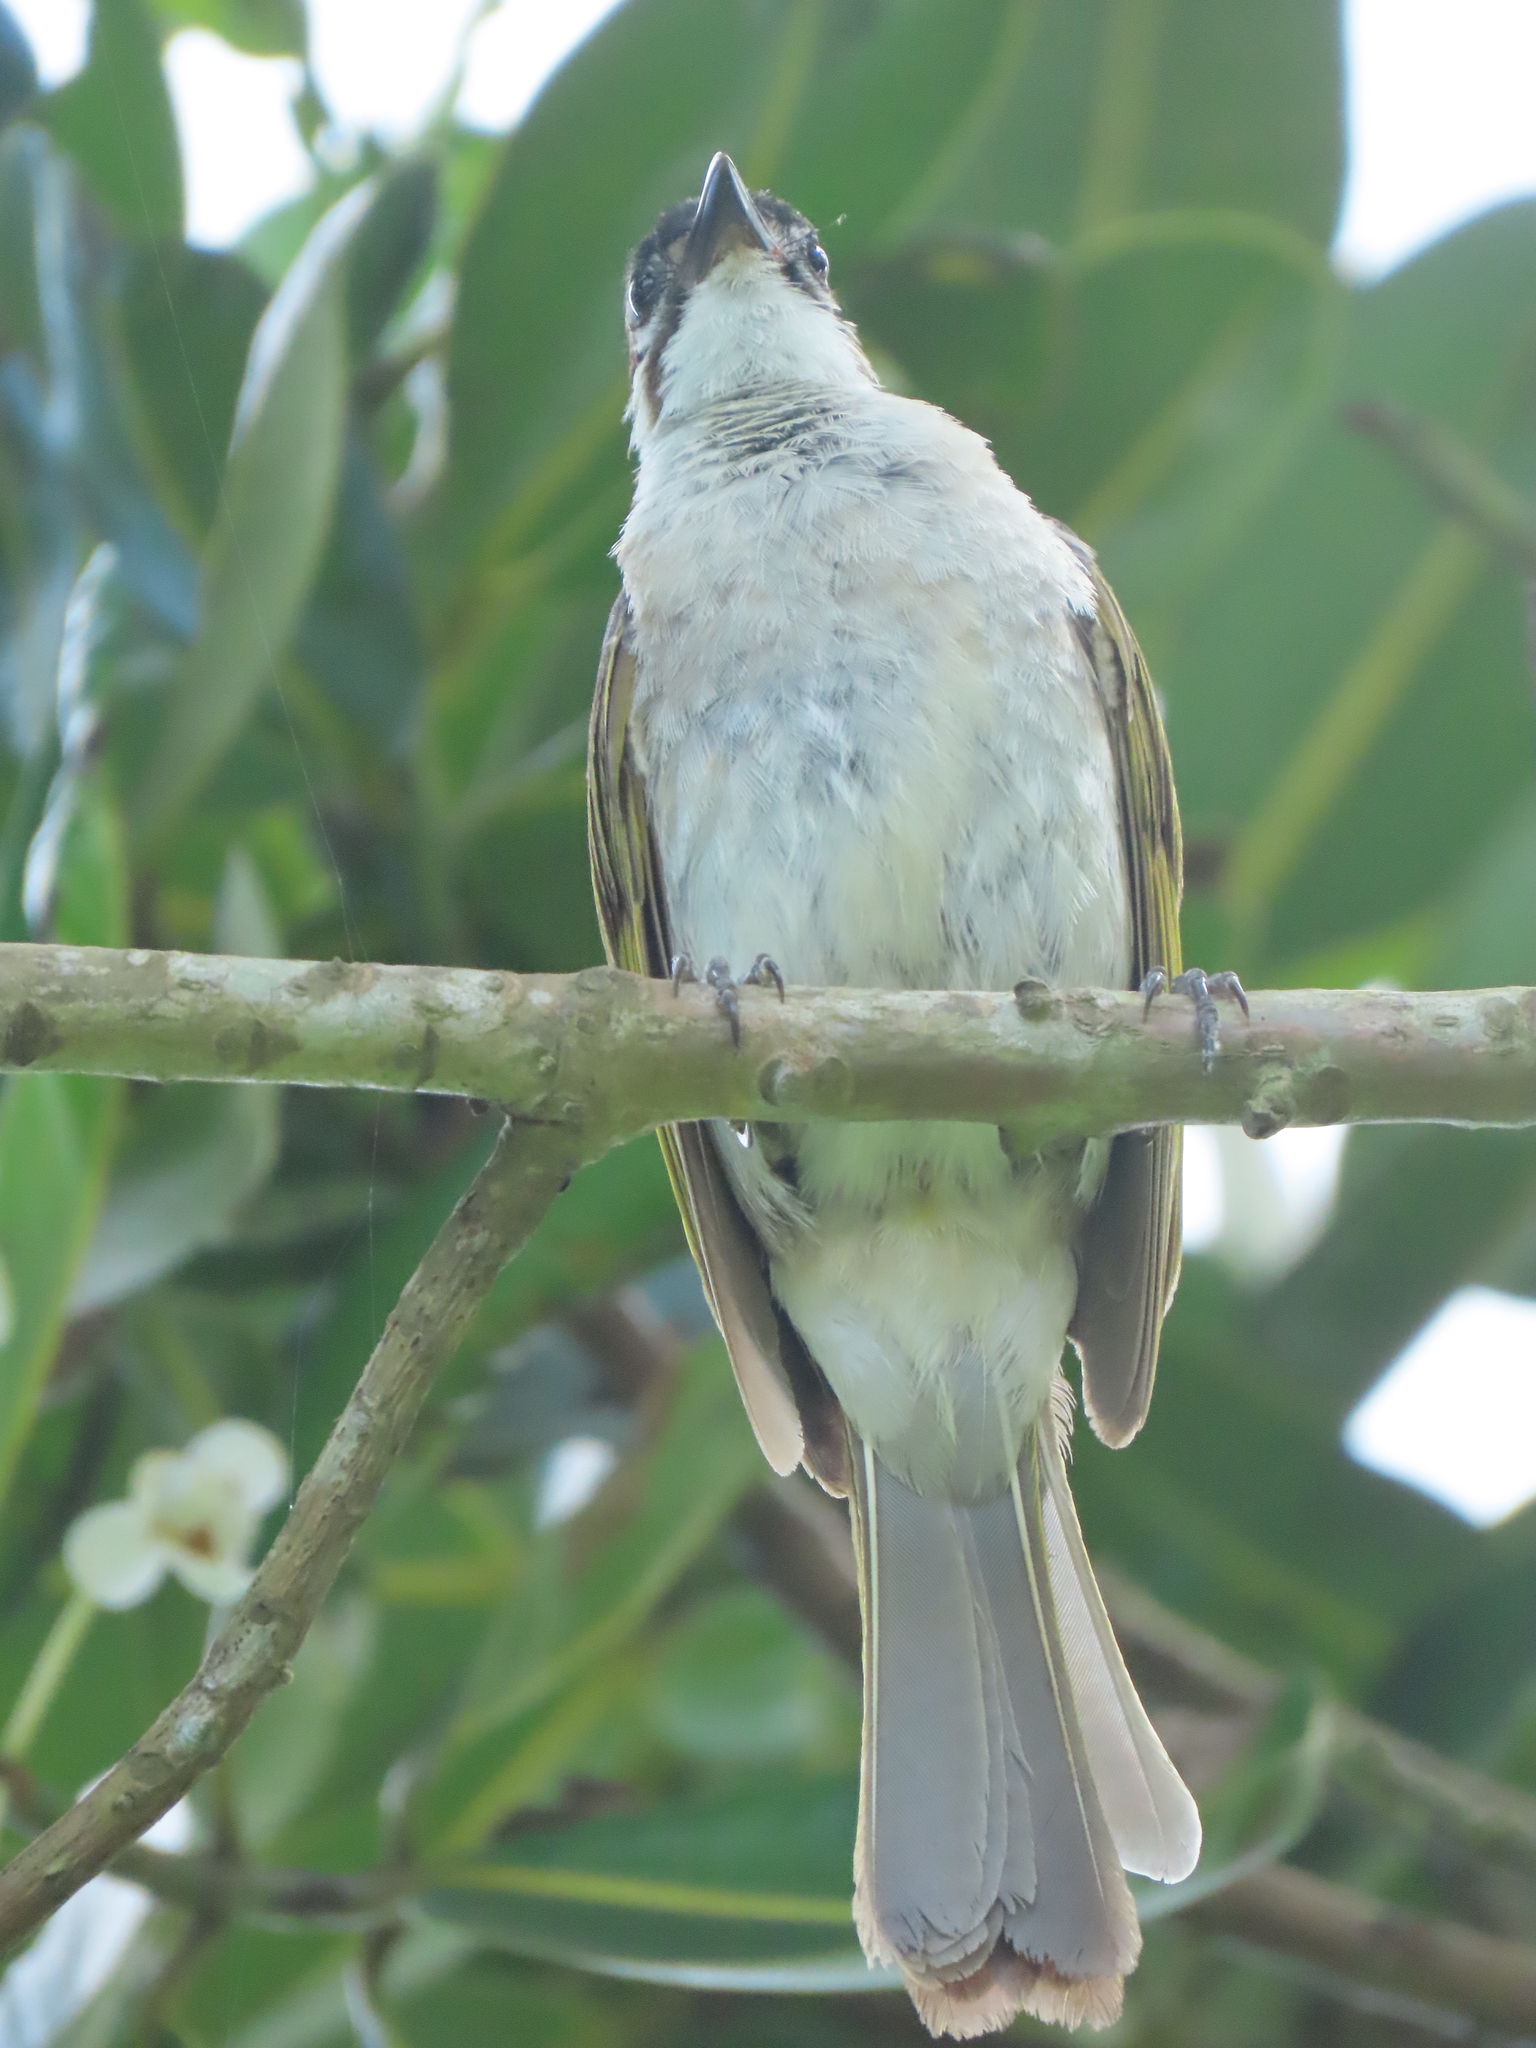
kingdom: Animalia
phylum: Chordata
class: Aves
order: Passeriformes
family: Pycnonotidae
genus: Pycnonotus
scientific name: Pycnonotus taivanus
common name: Styan's bulbul
